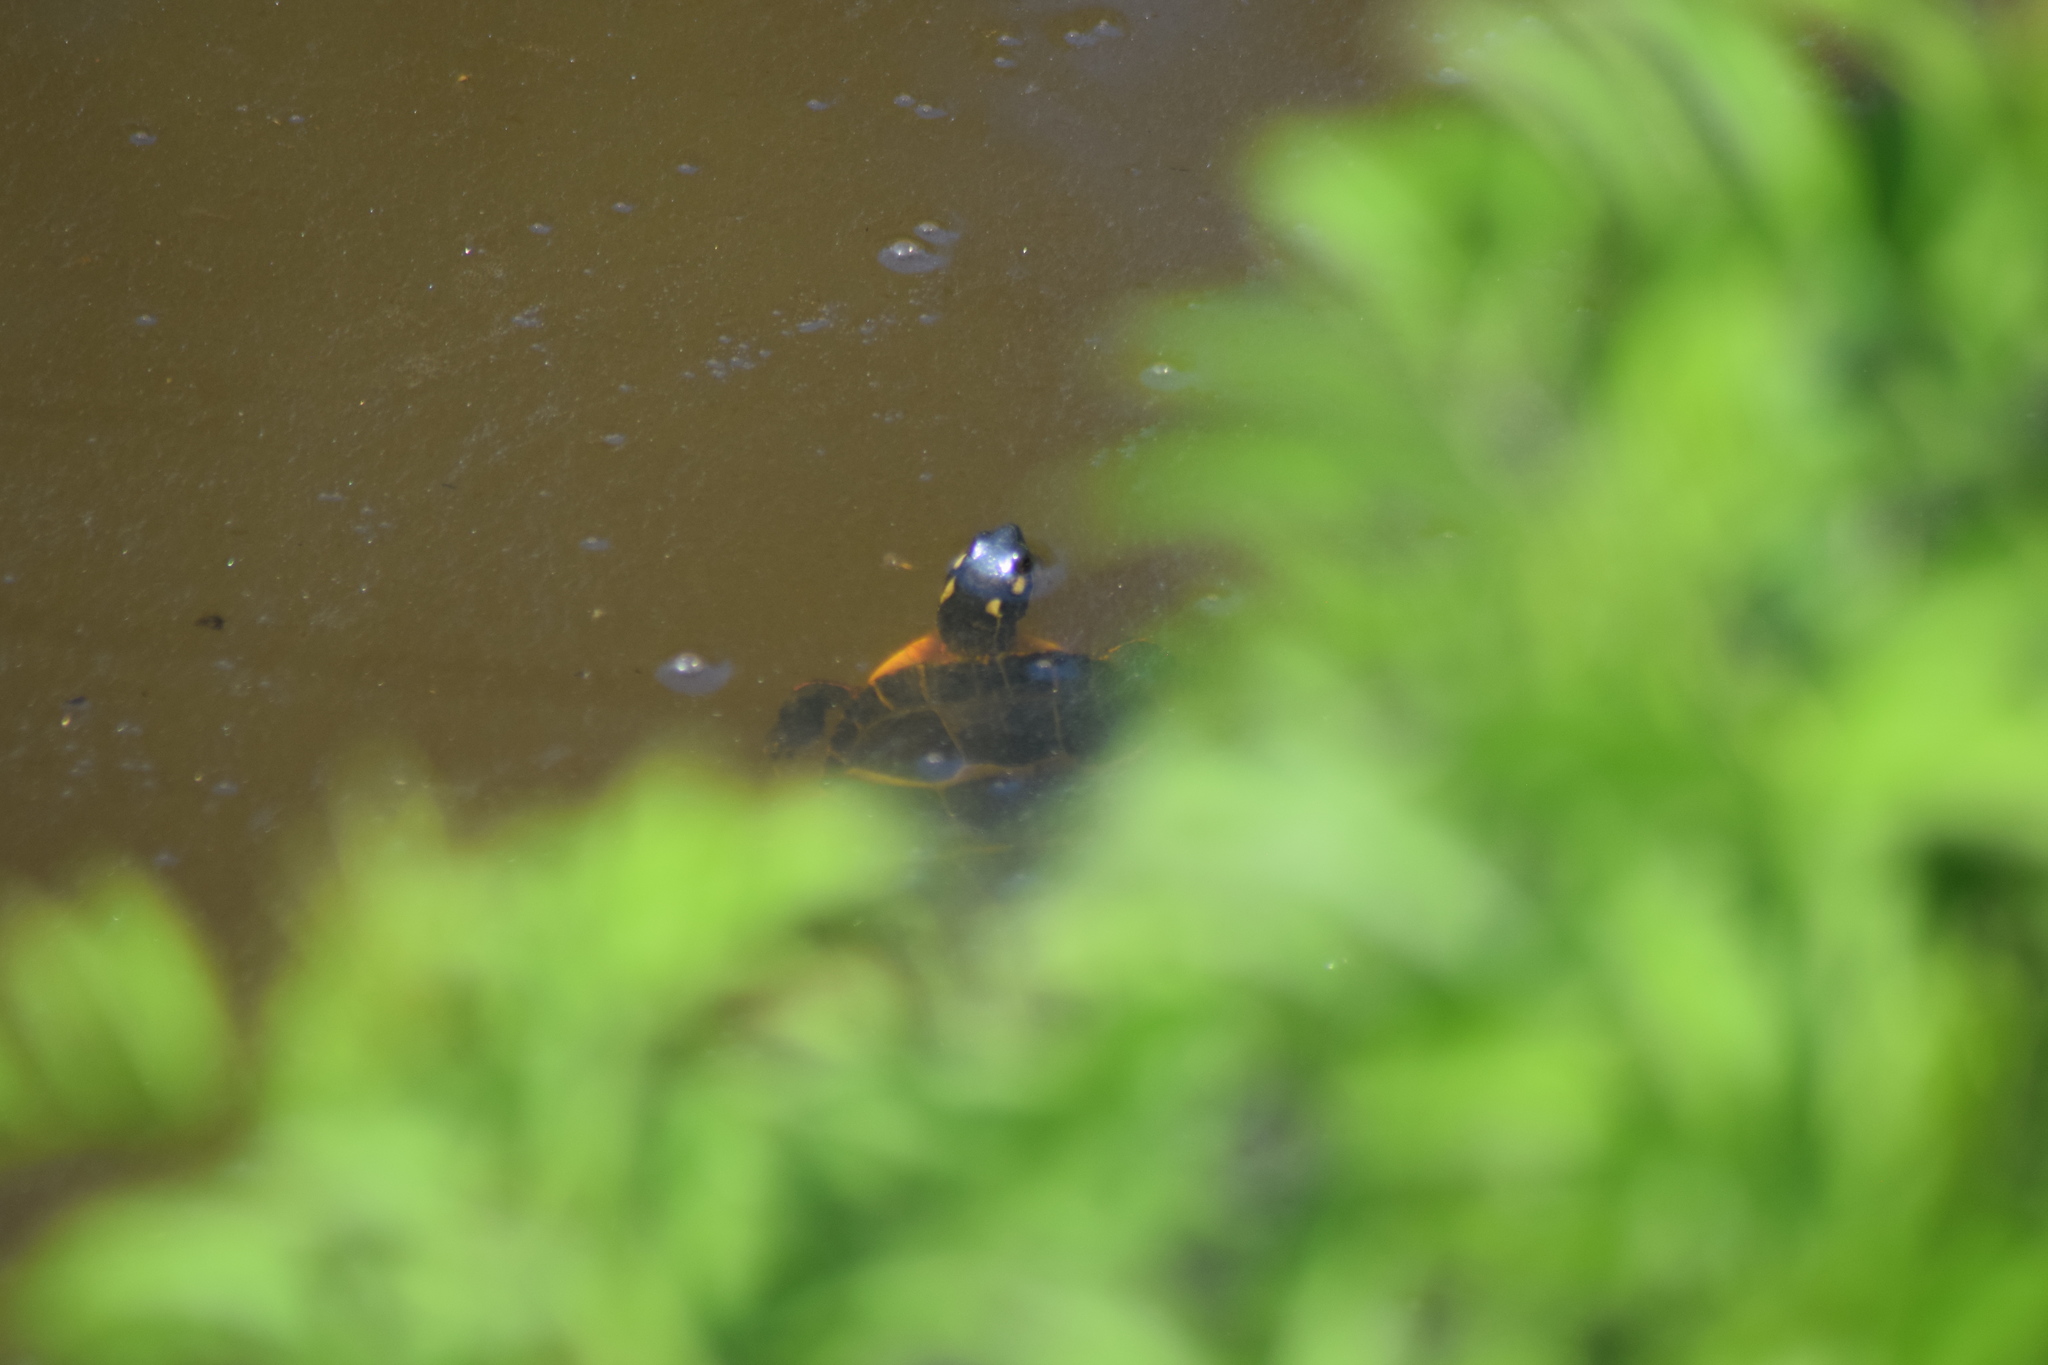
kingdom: Animalia
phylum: Chordata
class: Testudines
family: Emydidae
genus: Chrysemys
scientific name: Chrysemys picta
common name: Painted turtle
